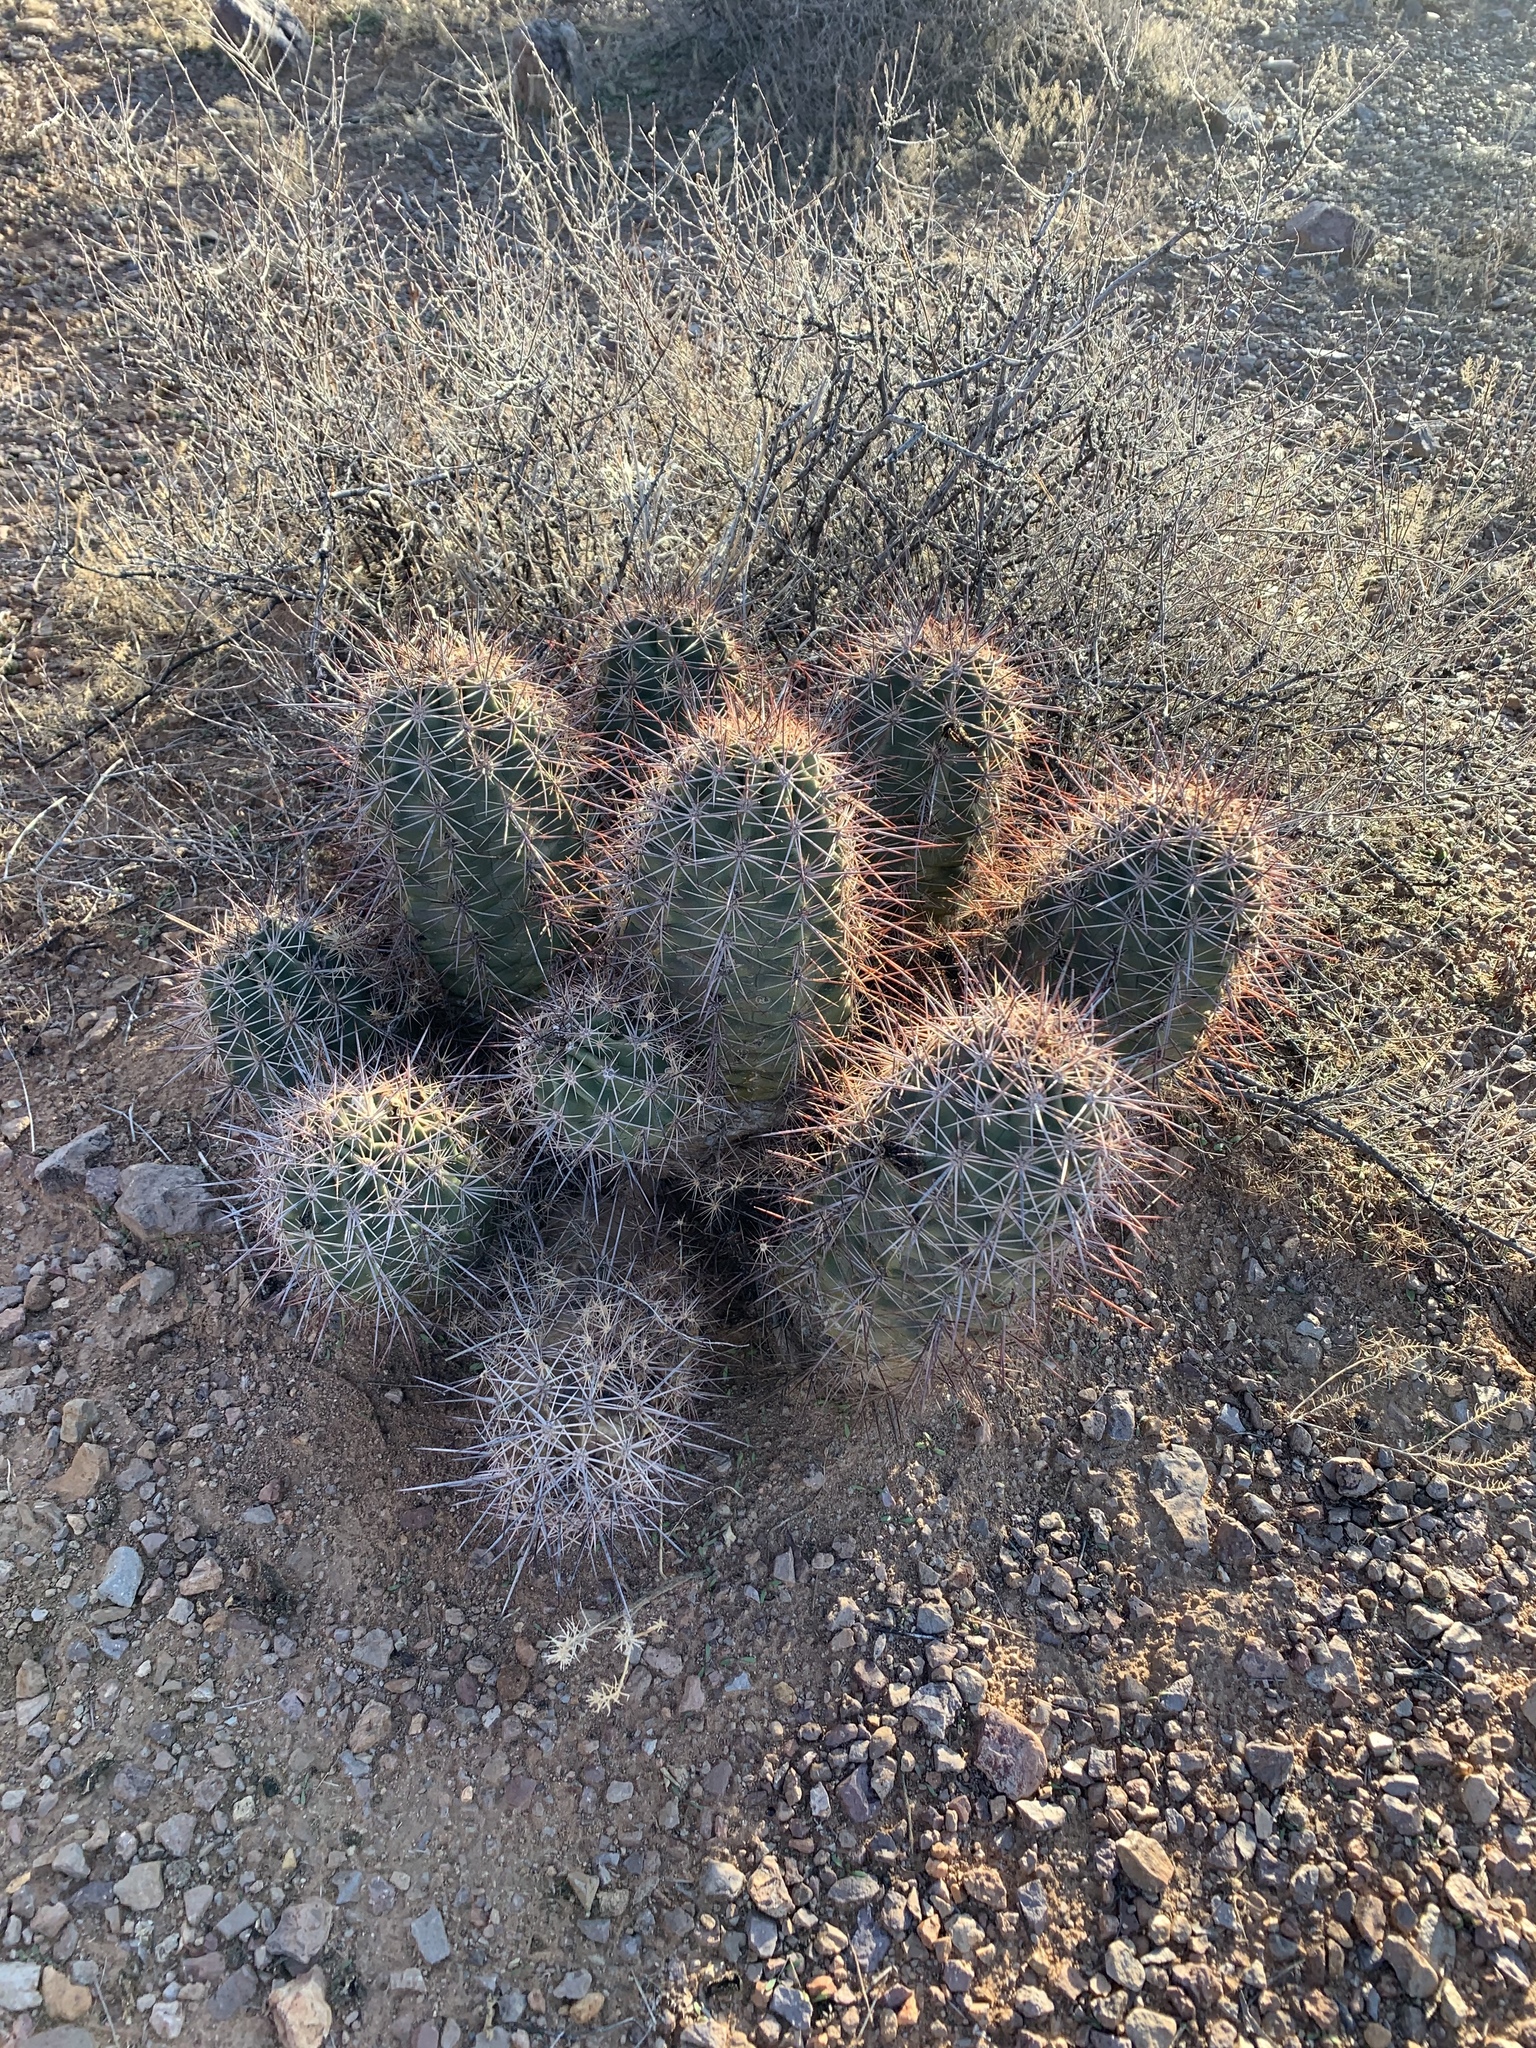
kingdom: Plantae
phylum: Tracheophyta
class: Magnoliopsida
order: Caryophyllales
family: Cactaceae
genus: Echinocereus
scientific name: Echinocereus coccineus
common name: Scarlet hedgehog cactus
